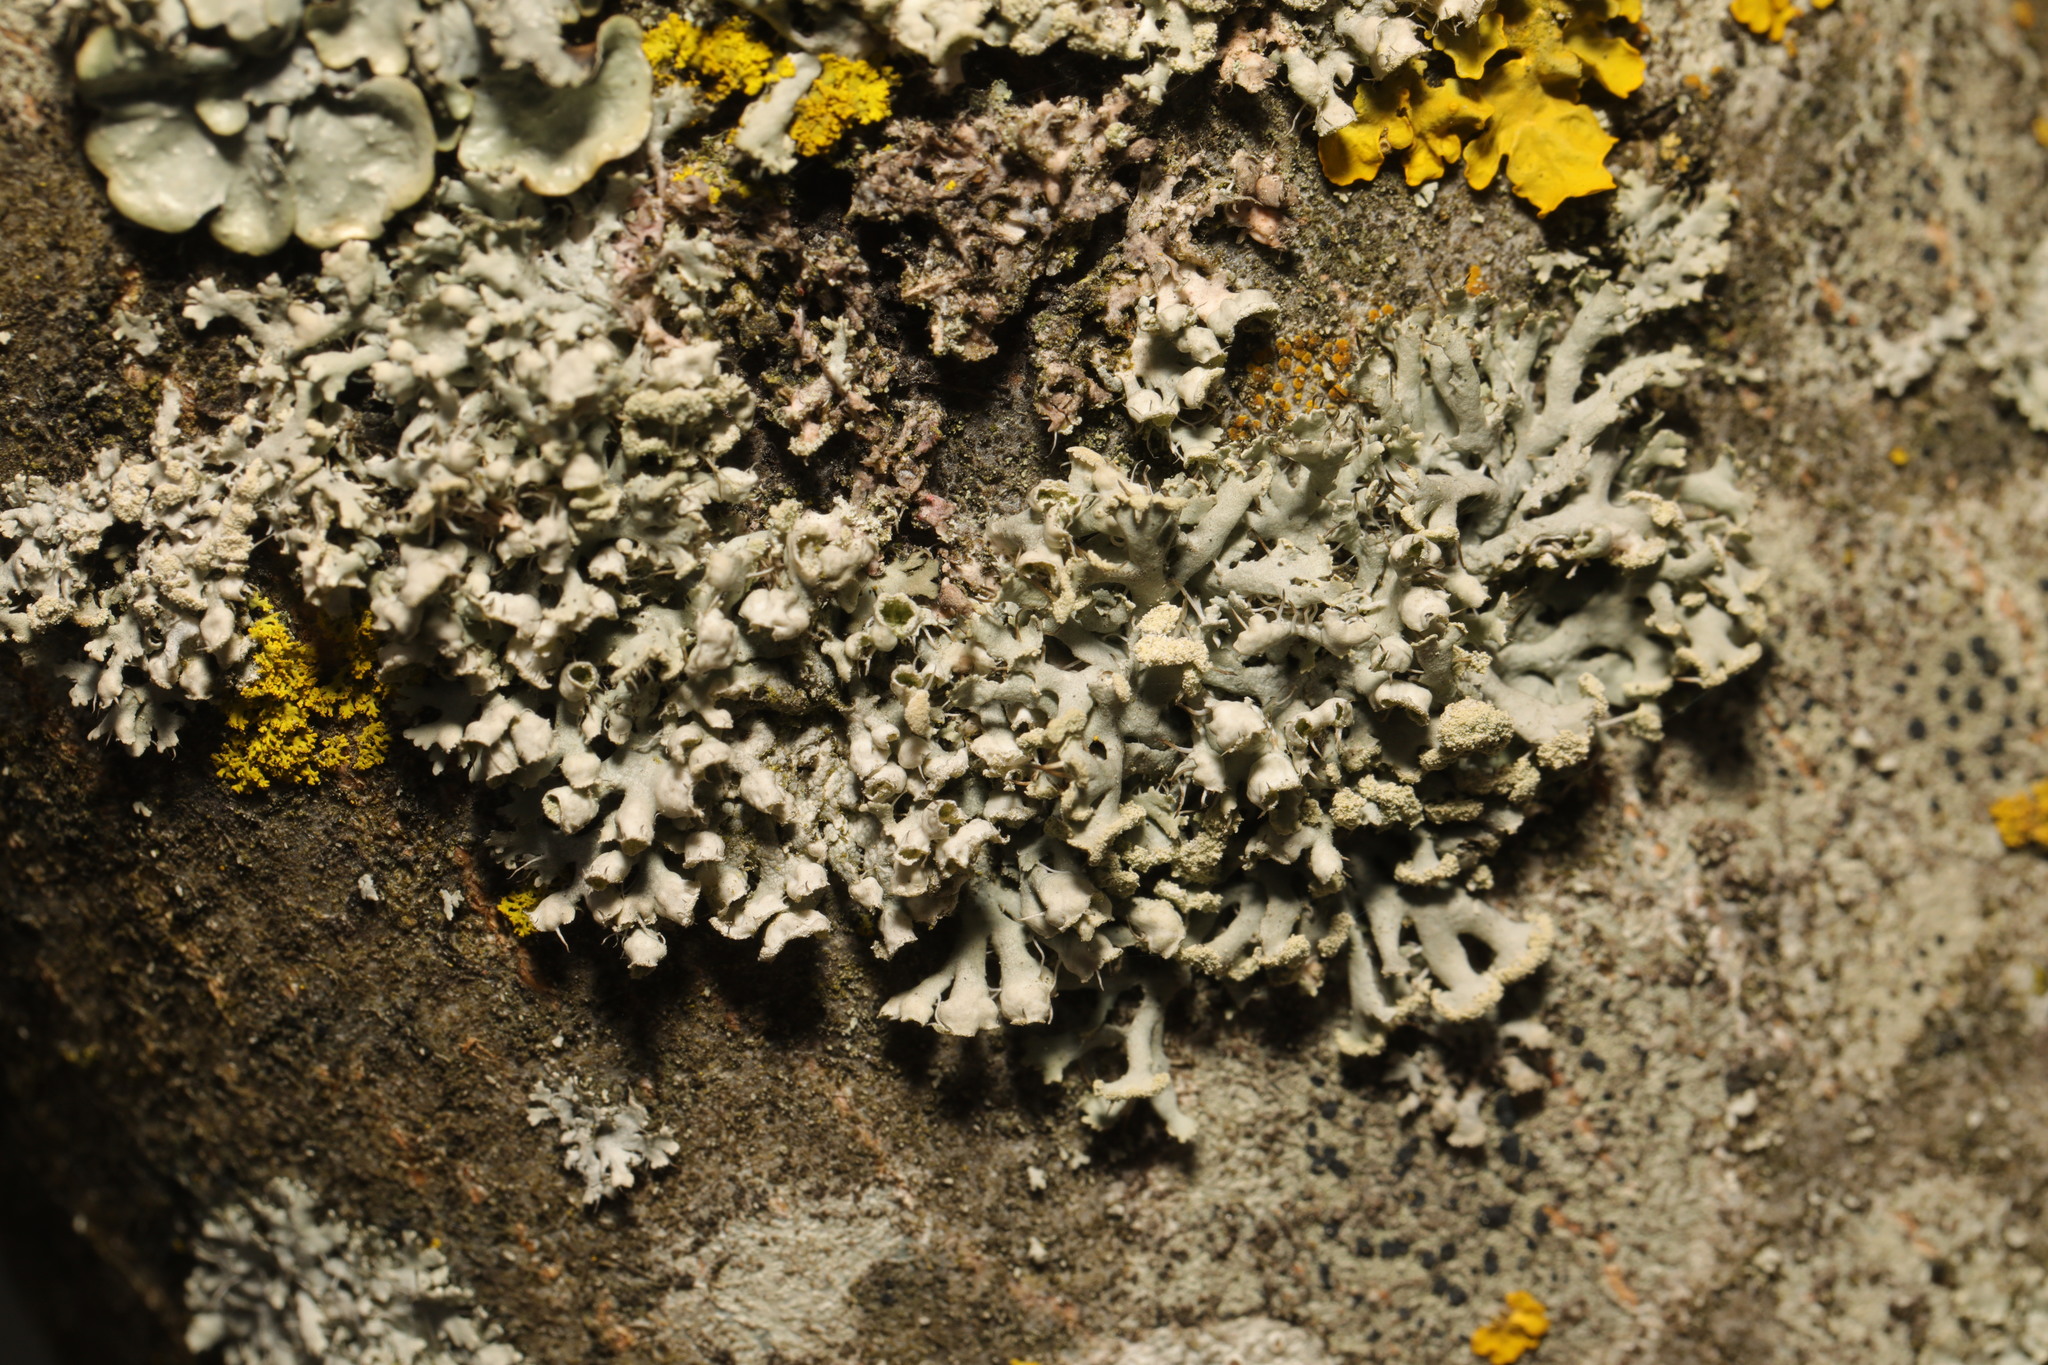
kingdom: Fungi
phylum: Ascomycota
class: Lecanoromycetes
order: Caliciales
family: Physciaceae
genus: Physcia
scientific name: Physcia adscendens
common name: Hooded rosette lichen
